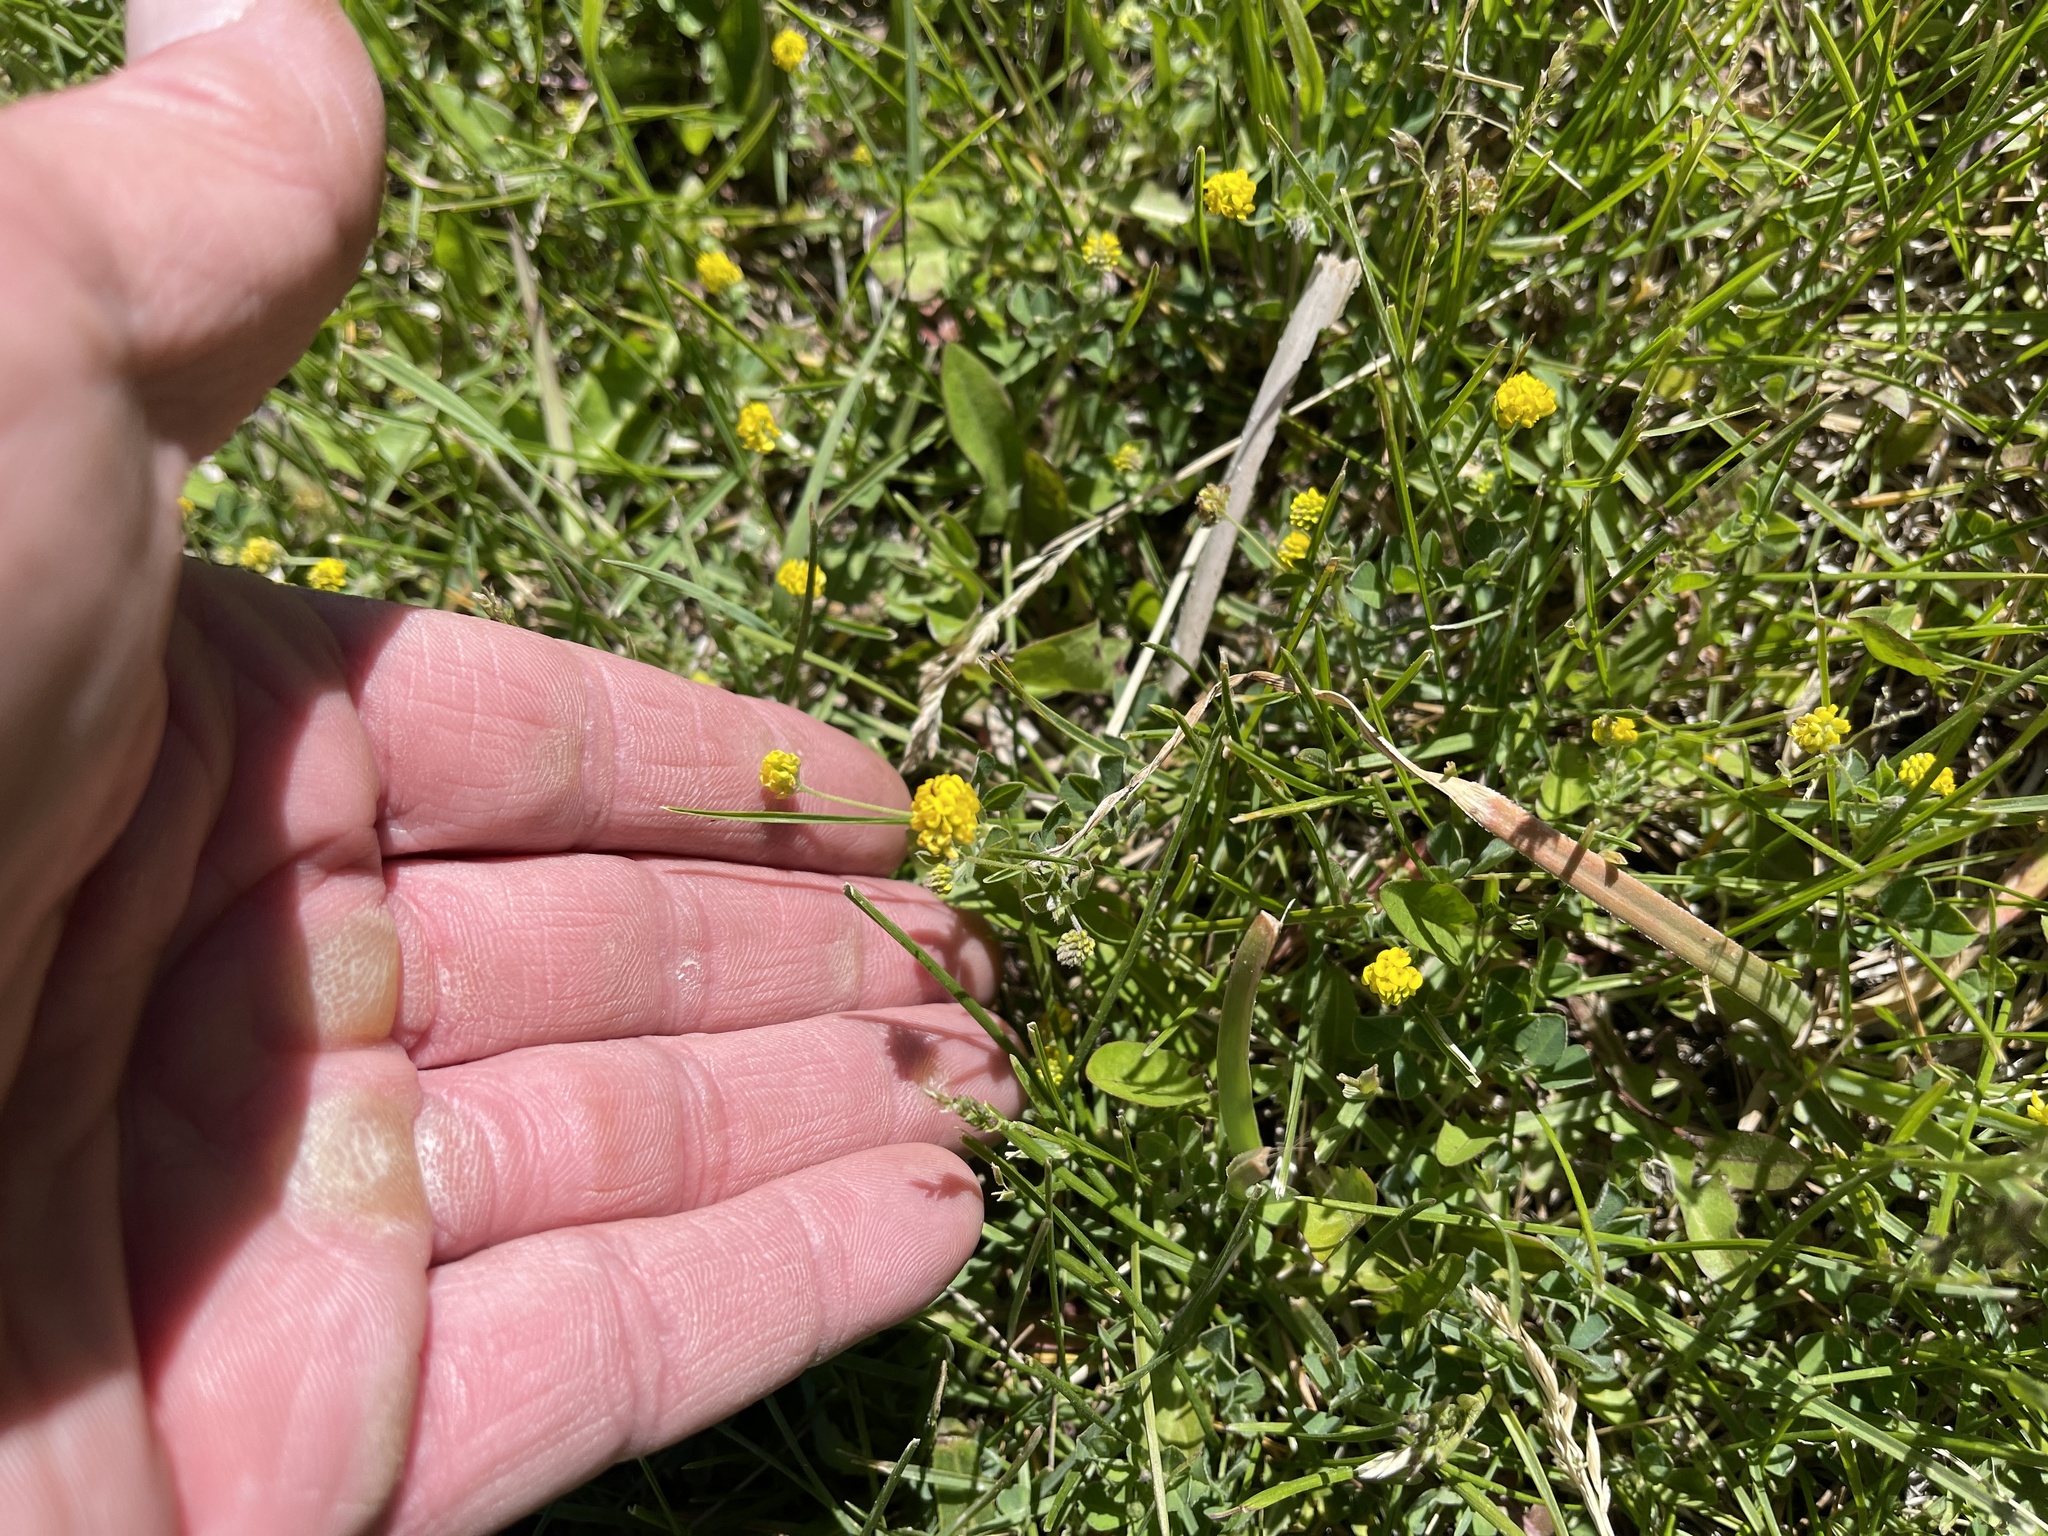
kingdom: Plantae
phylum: Tracheophyta
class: Magnoliopsida
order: Fabales
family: Fabaceae
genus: Medicago
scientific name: Medicago lupulina
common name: Black medick
